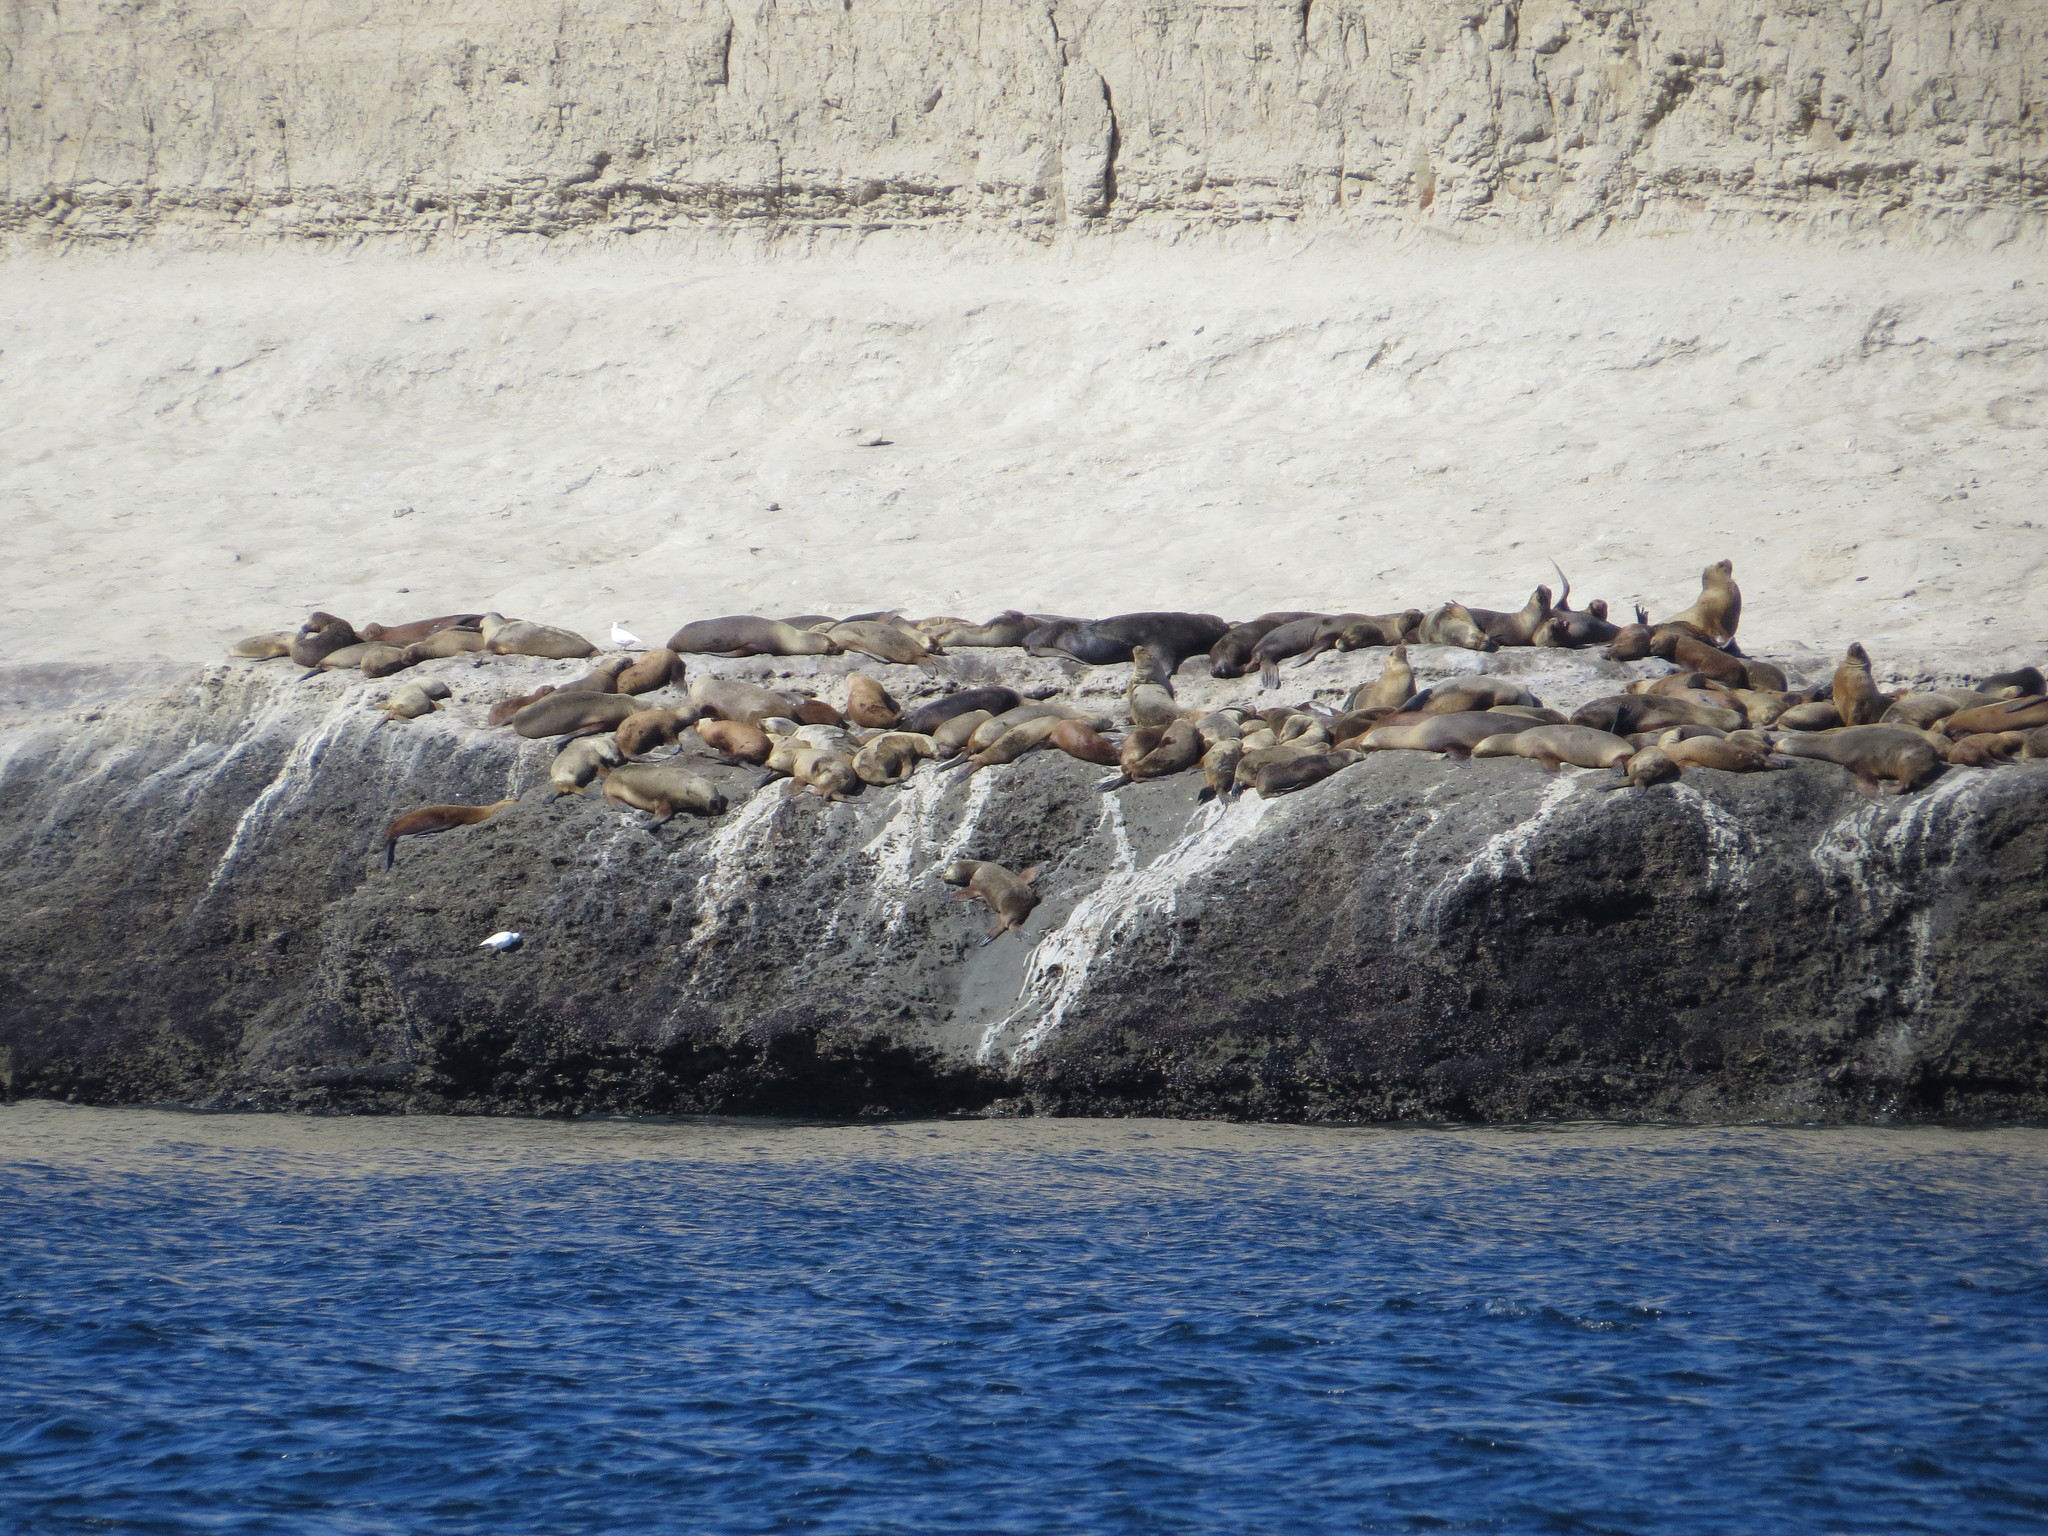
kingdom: Animalia
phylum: Chordata
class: Mammalia
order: Carnivora
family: Otariidae
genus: Otaria
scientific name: Otaria byronia
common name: South american sea lion
